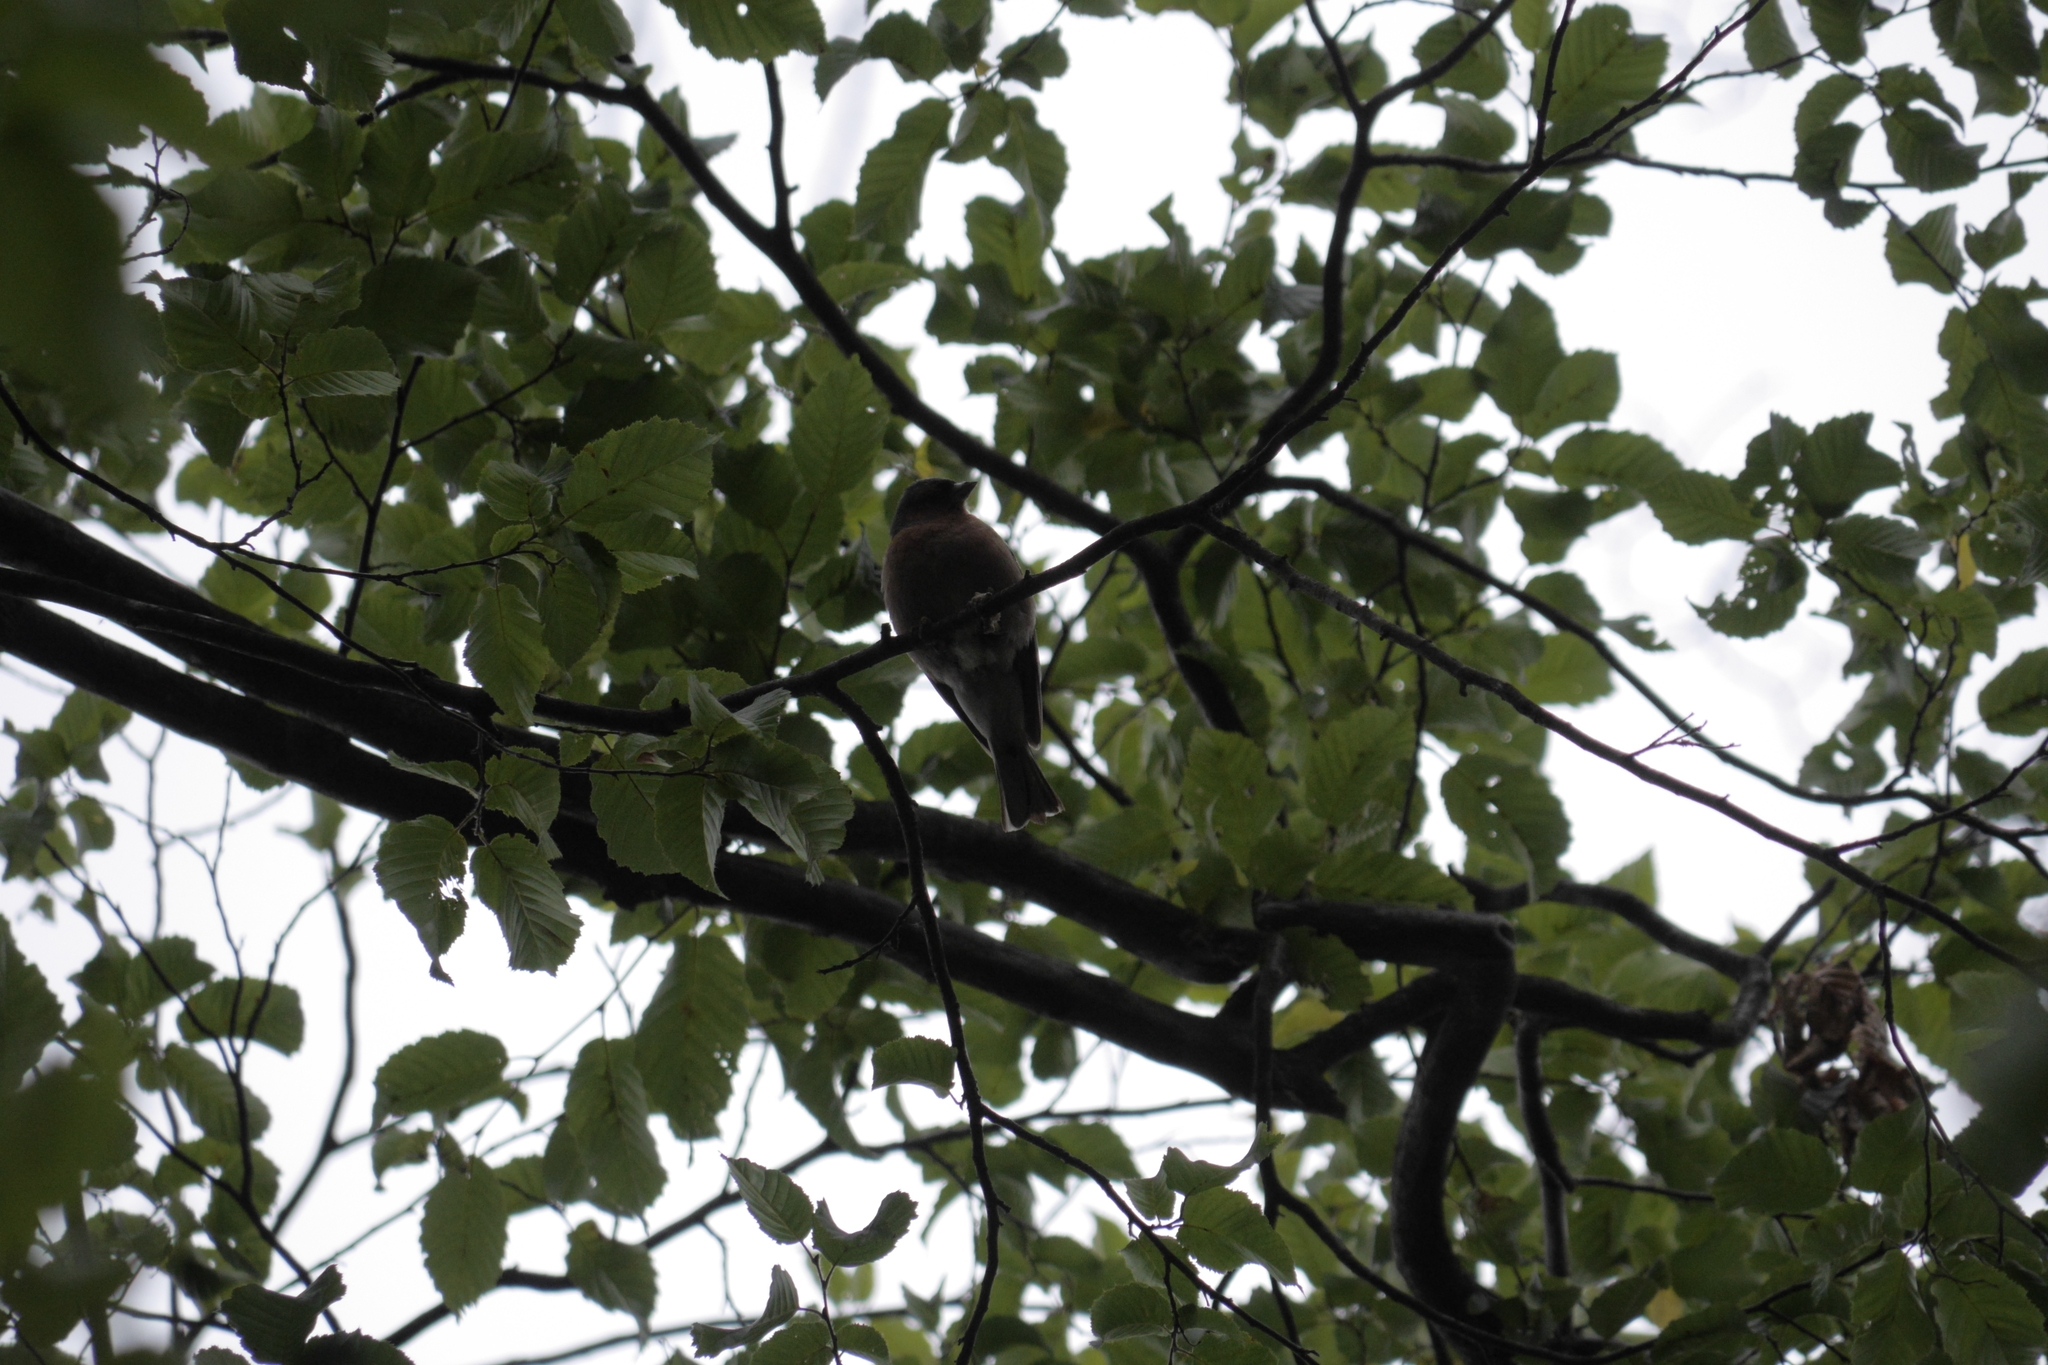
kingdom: Animalia
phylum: Chordata
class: Aves
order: Passeriformes
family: Fringillidae
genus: Fringilla
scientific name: Fringilla coelebs
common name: Common chaffinch
